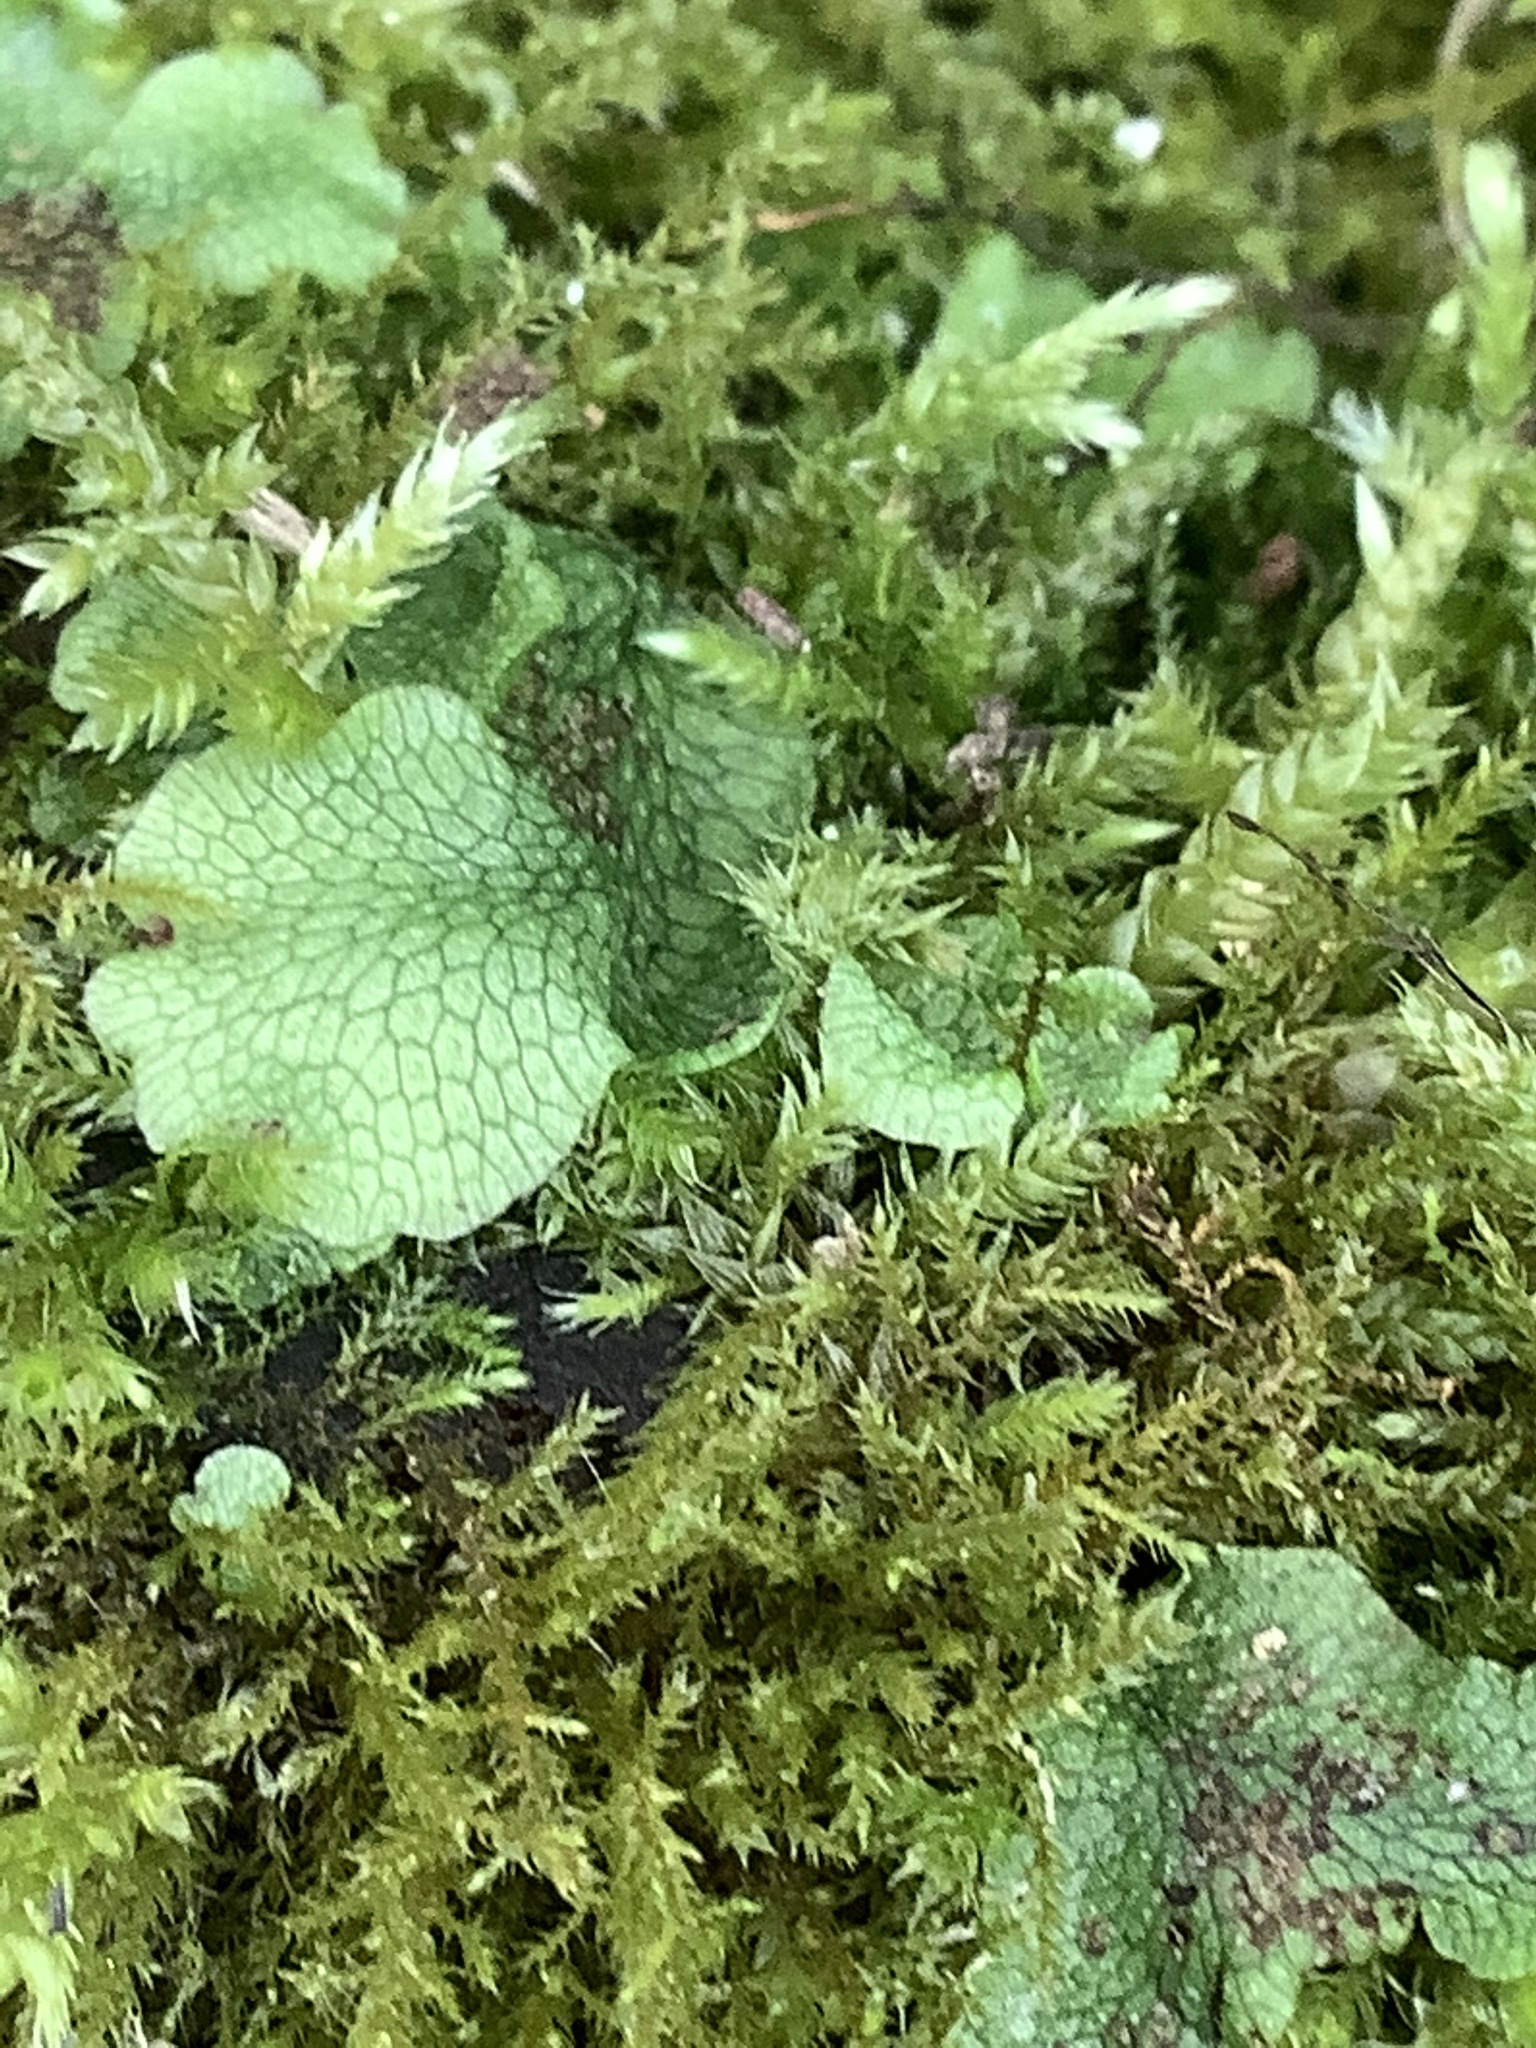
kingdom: Plantae
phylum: Marchantiophyta
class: Marchantiopsida
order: Marchantiales
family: Conocephalaceae
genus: Conocephalum
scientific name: Conocephalum salebrosum
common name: Cat-tongue liverwort
